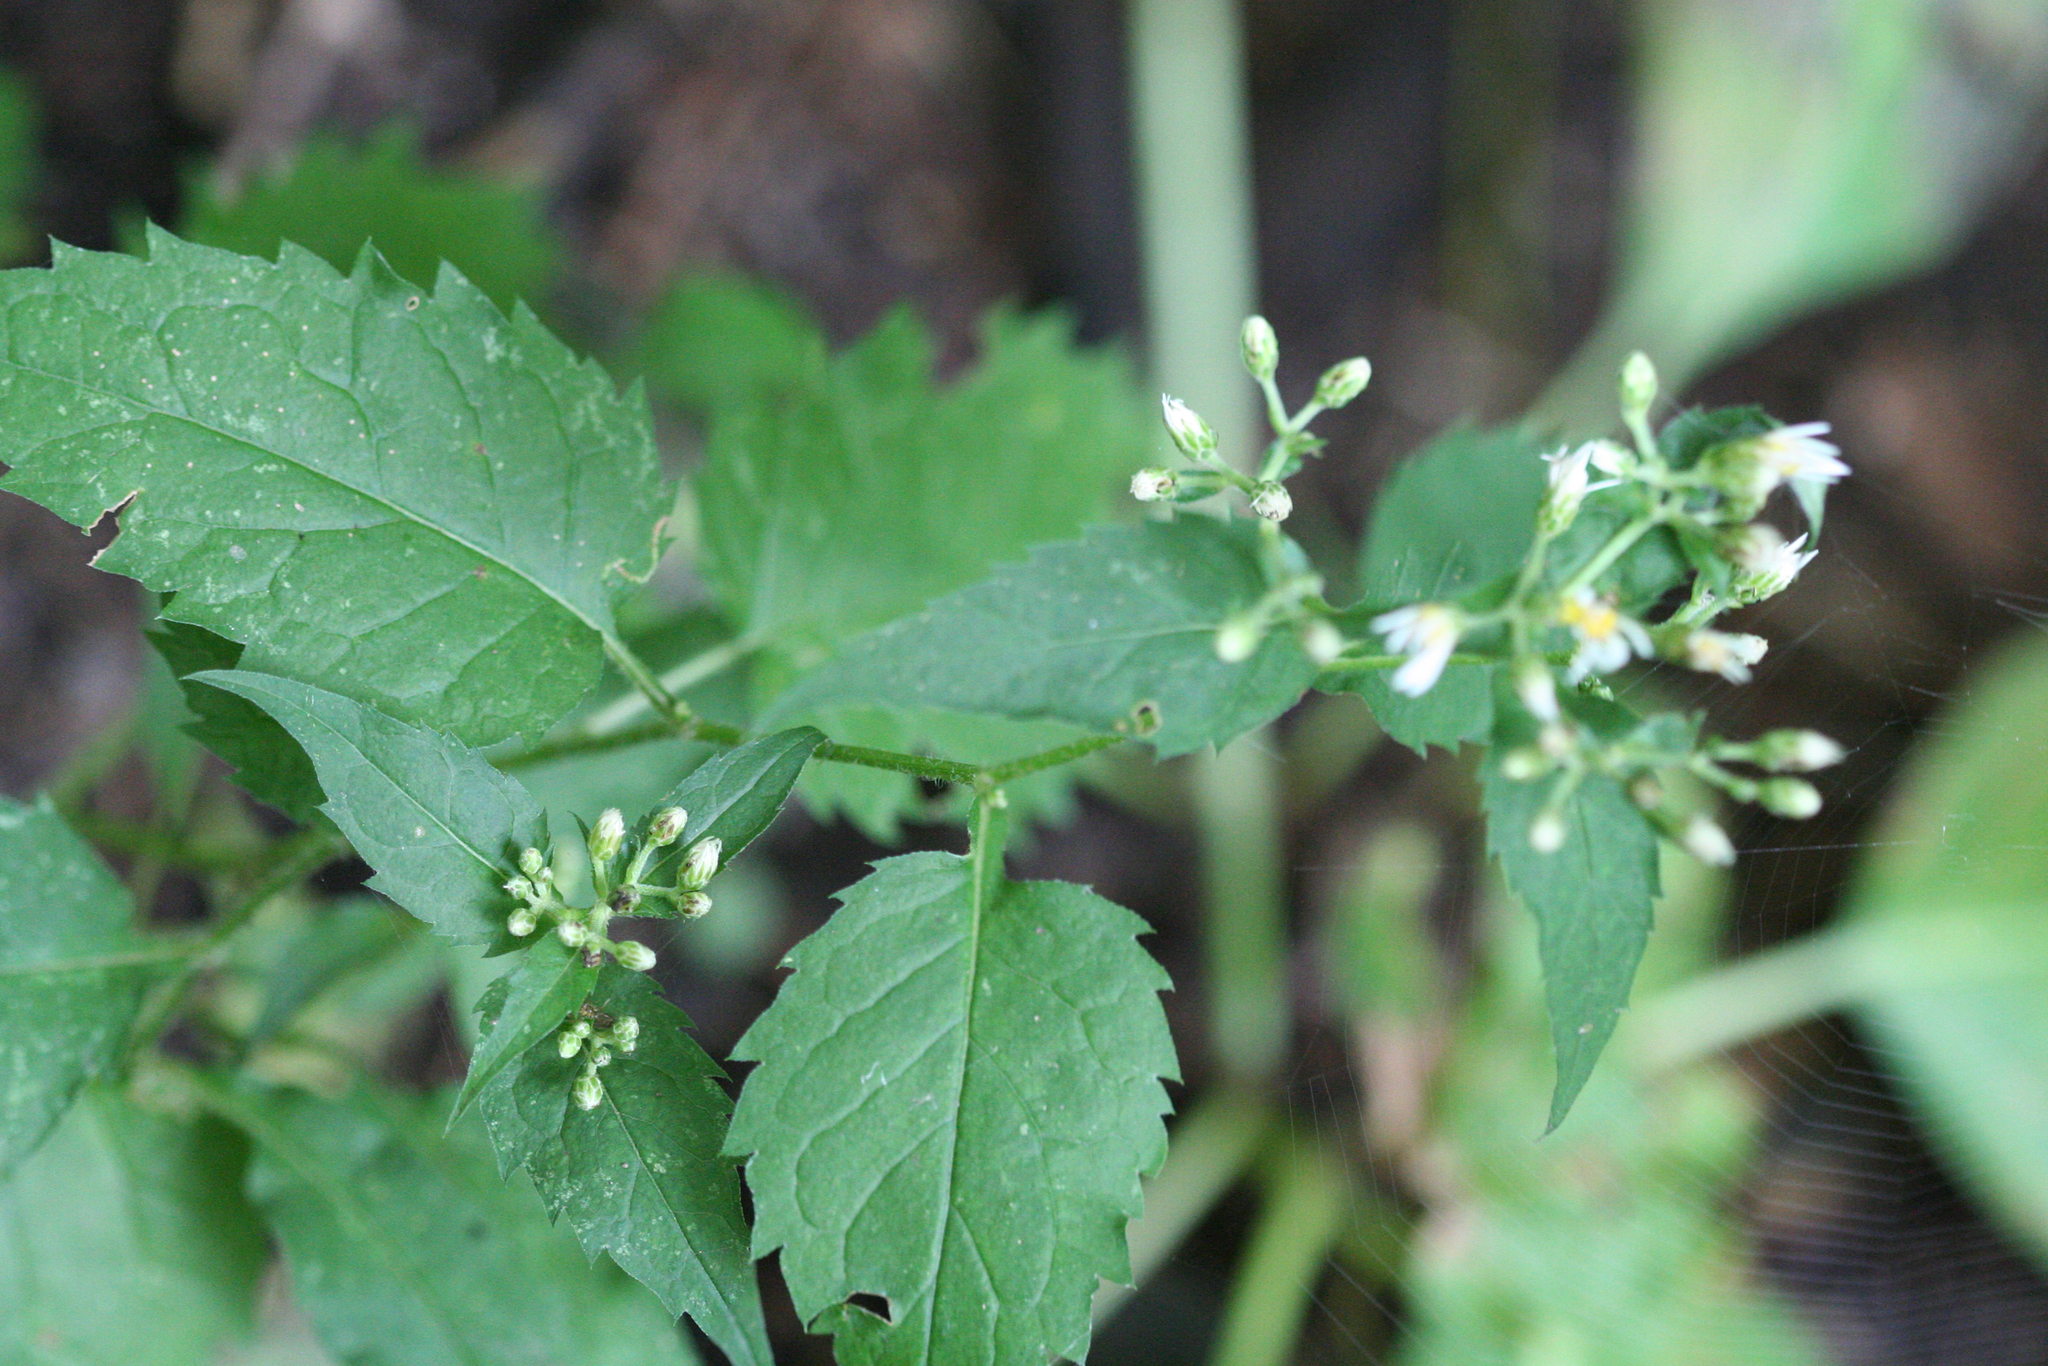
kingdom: Plantae
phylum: Tracheophyta
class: Magnoliopsida
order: Asterales
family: Asteraceae
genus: Eurybia
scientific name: Eurybia divaricata
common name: White wood aster
